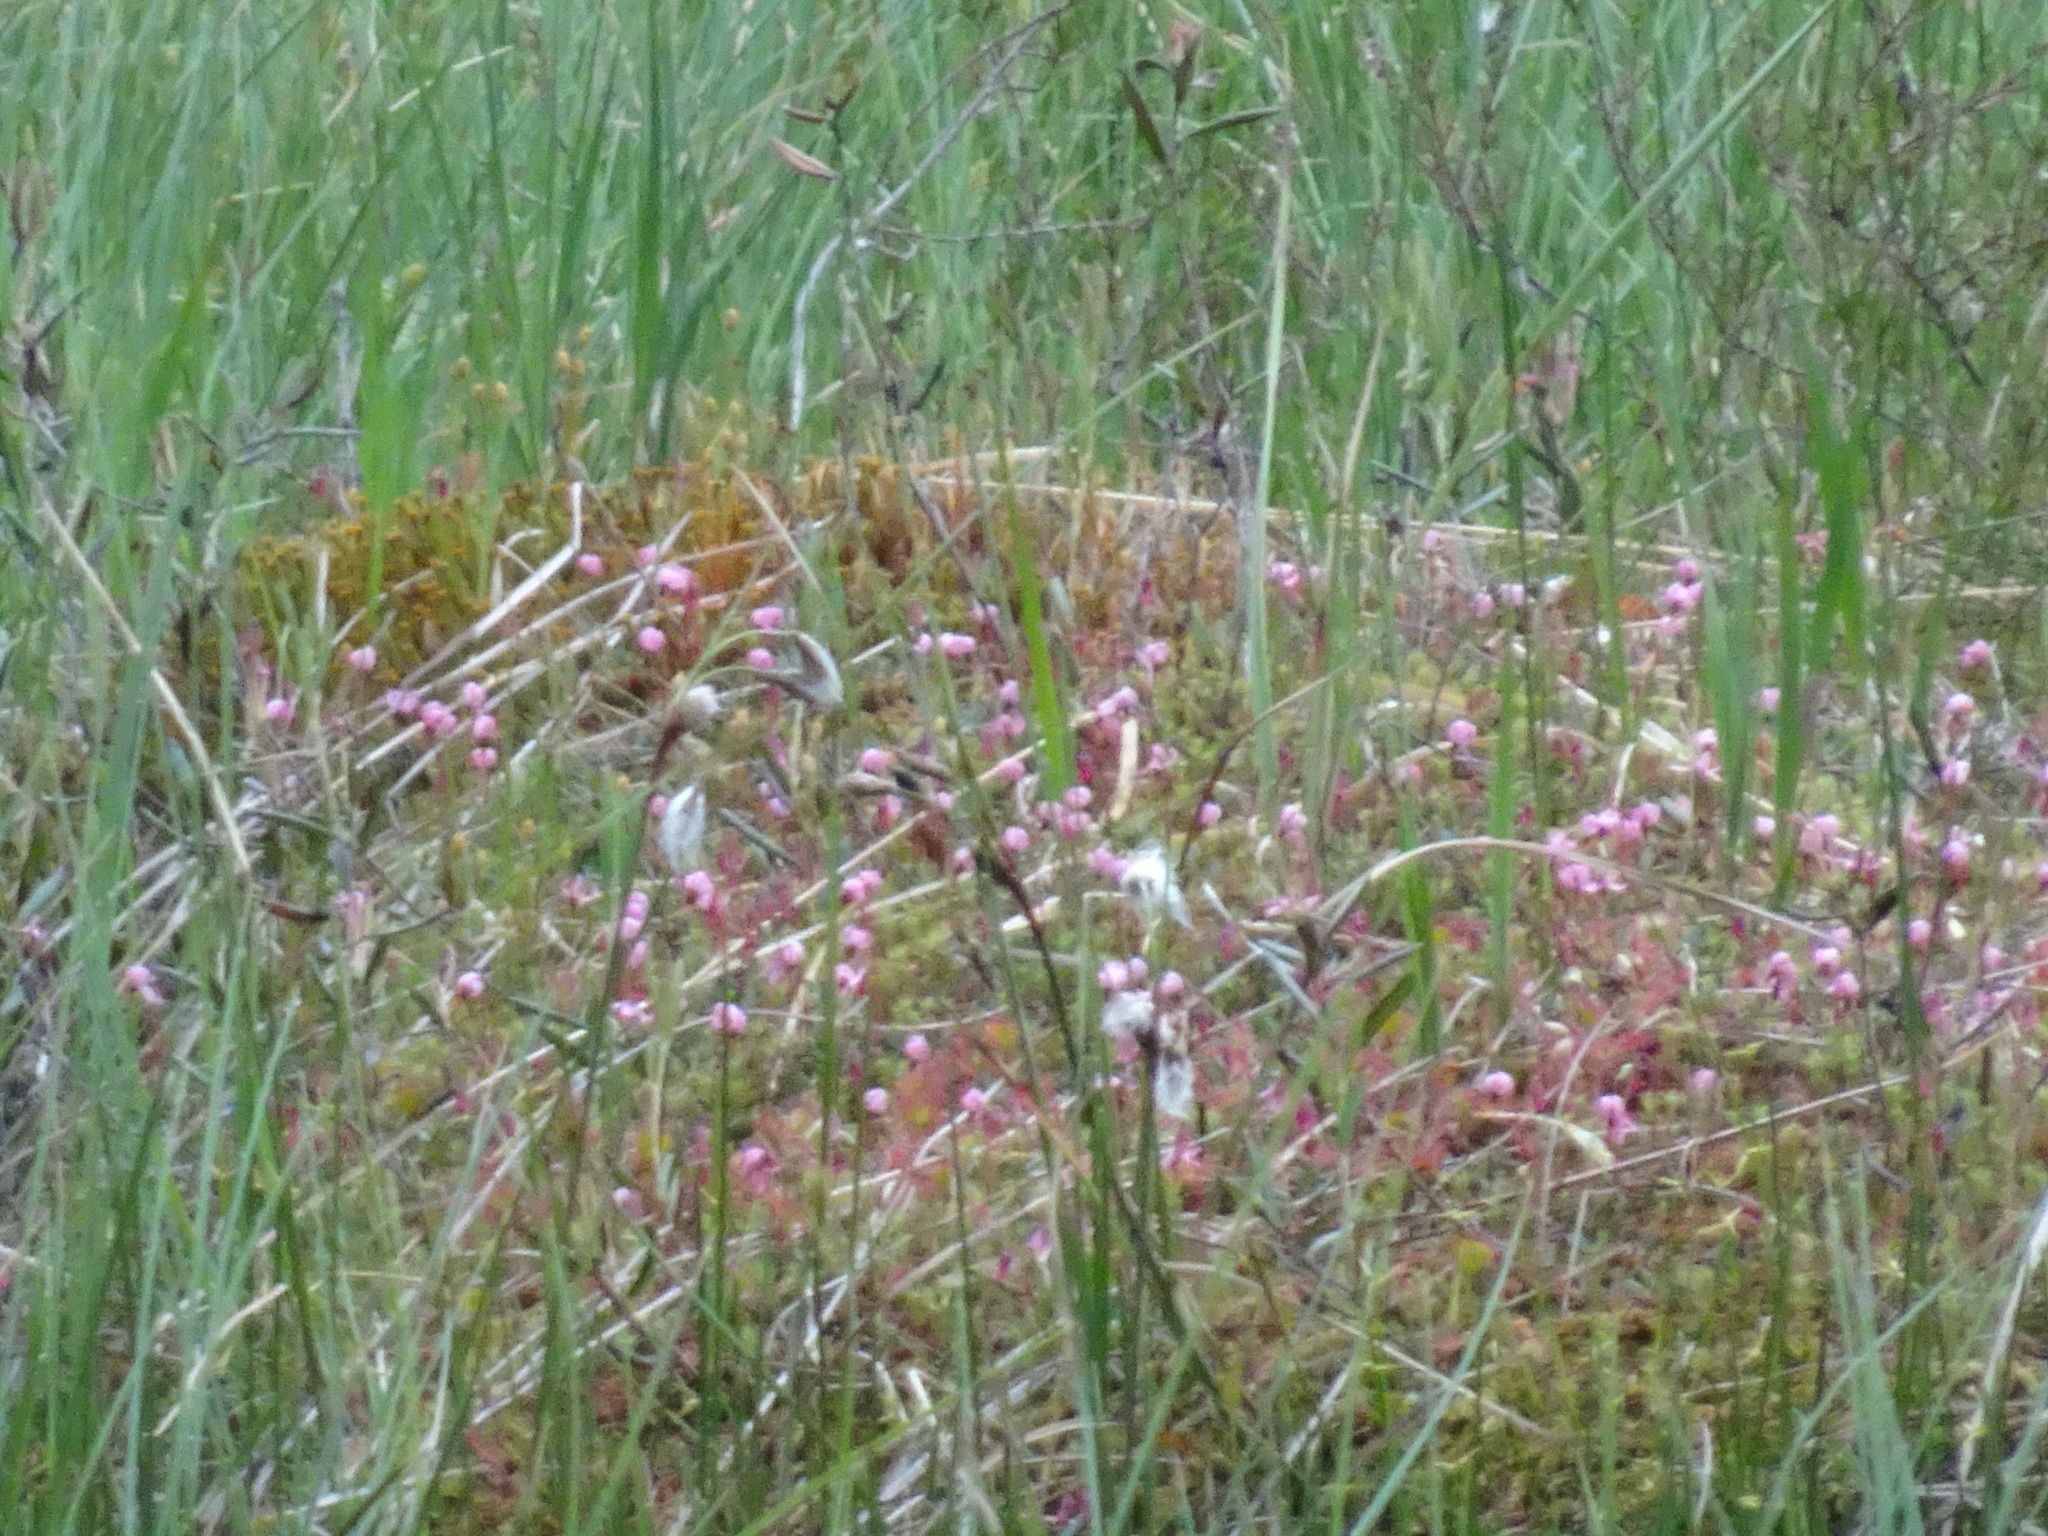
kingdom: Plantae
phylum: Tracheophyta
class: Magnoliopsida
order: Ericales
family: Ericaceae
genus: Vaccinium
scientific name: Vaccinium oxycoccos
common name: Cranberry
